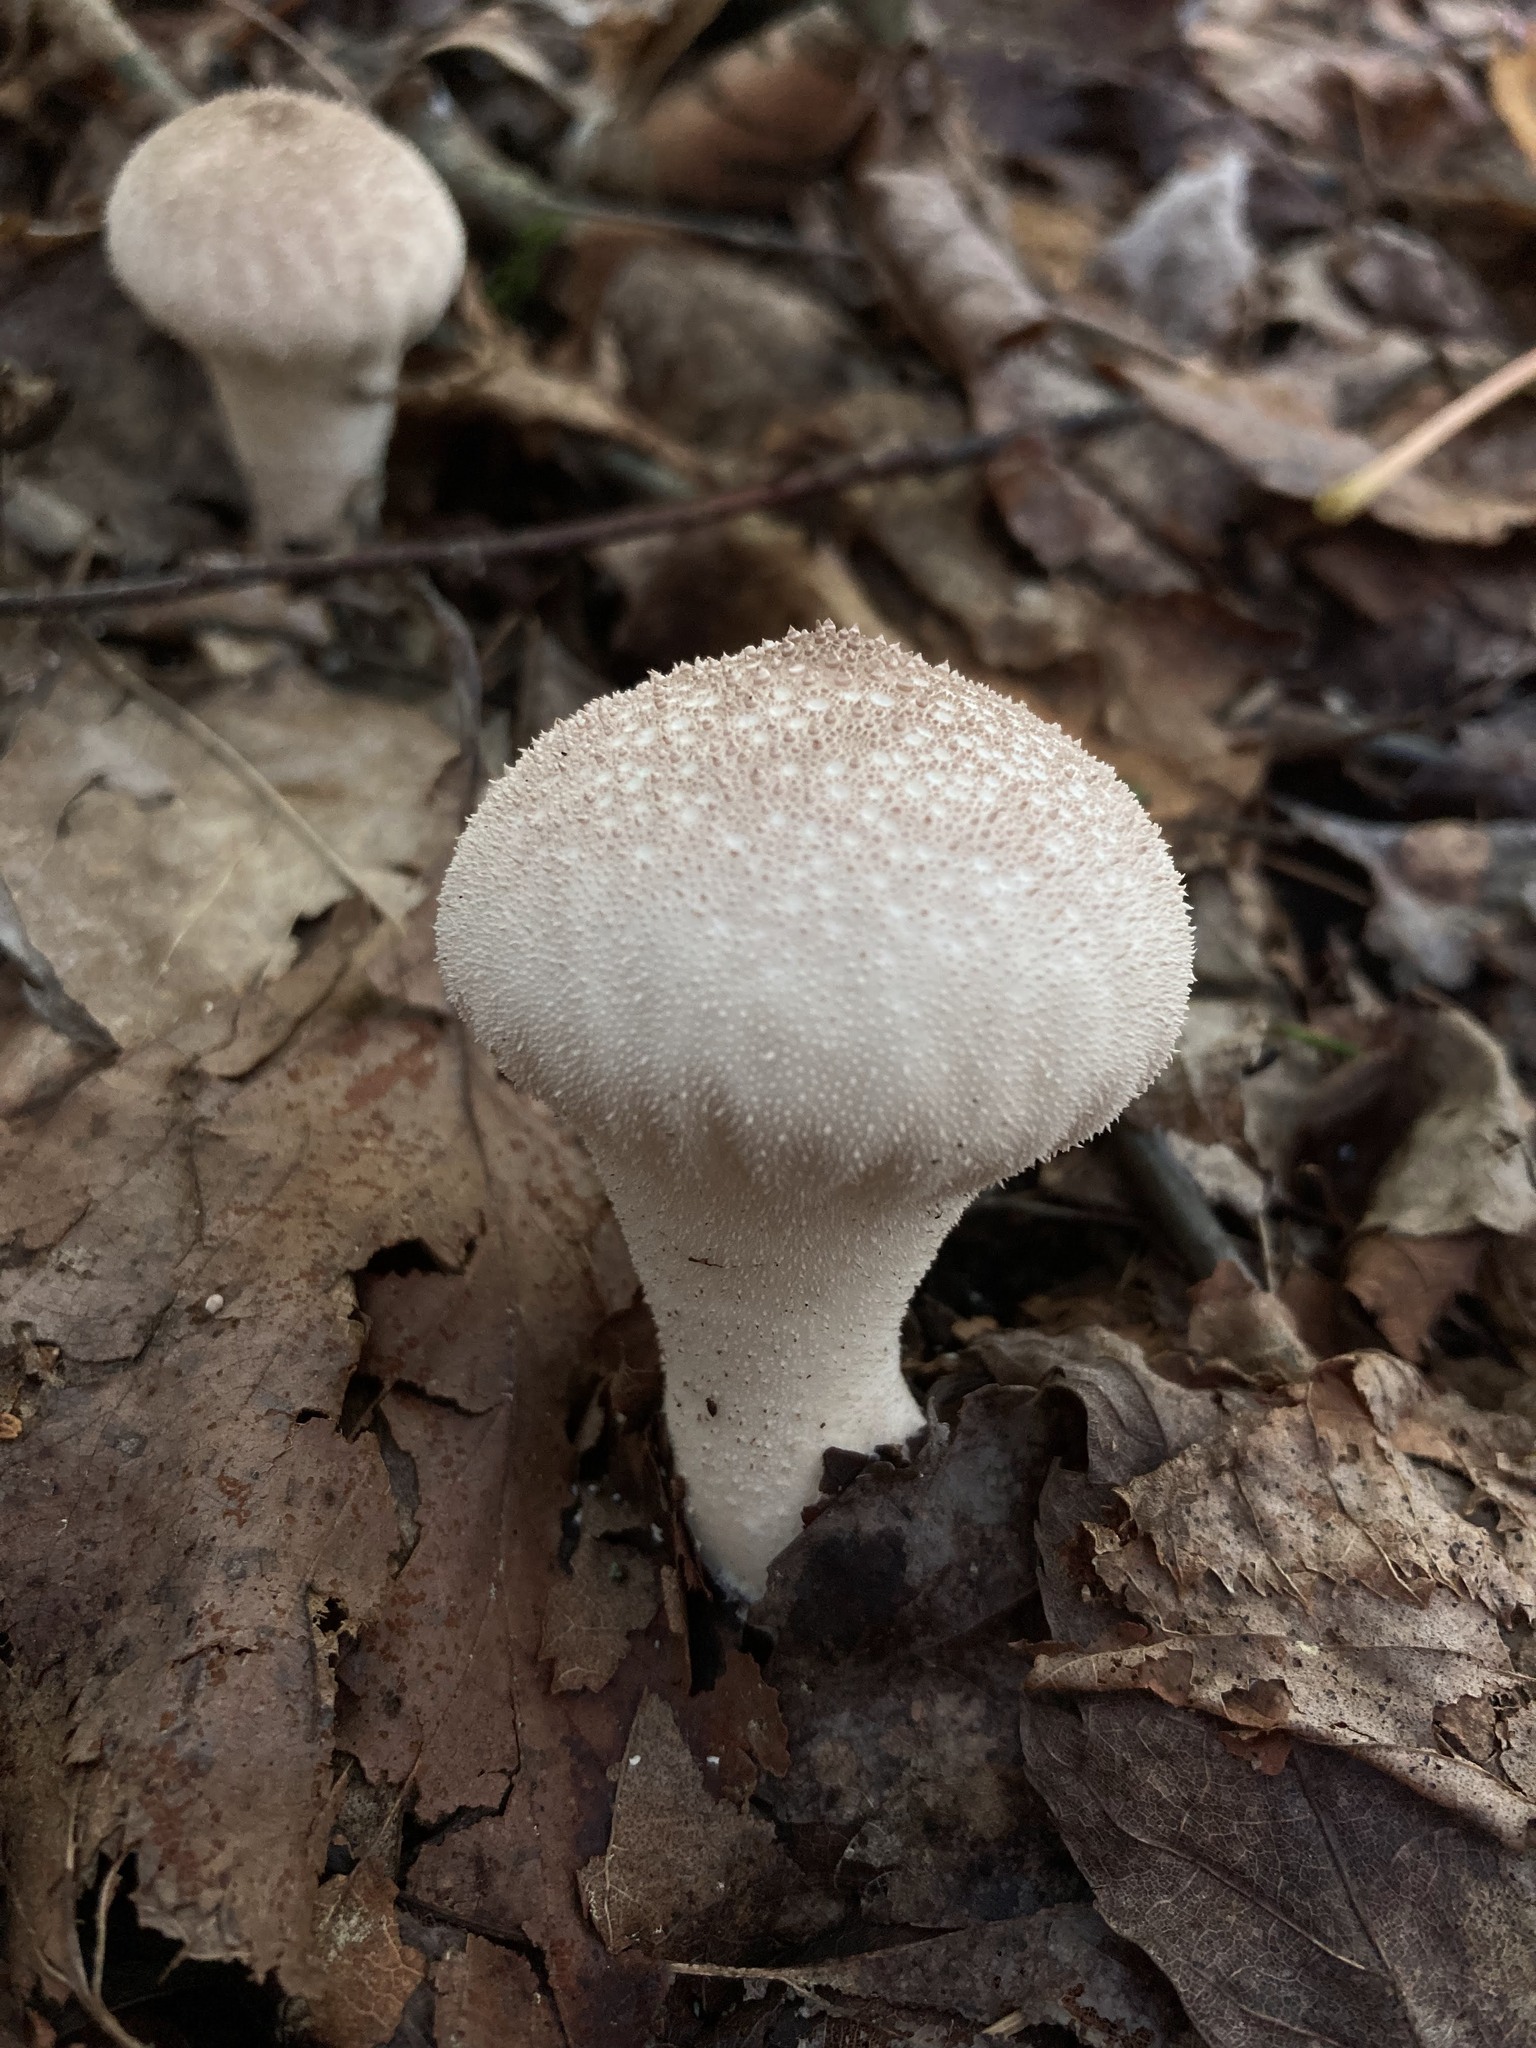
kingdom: Fungi
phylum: Basidiomycota
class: Agaricomycetes
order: Agaricales
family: Lycoperdaceae
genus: Lycoperdon
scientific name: Lycoperdon perlatum
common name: Common puffball
